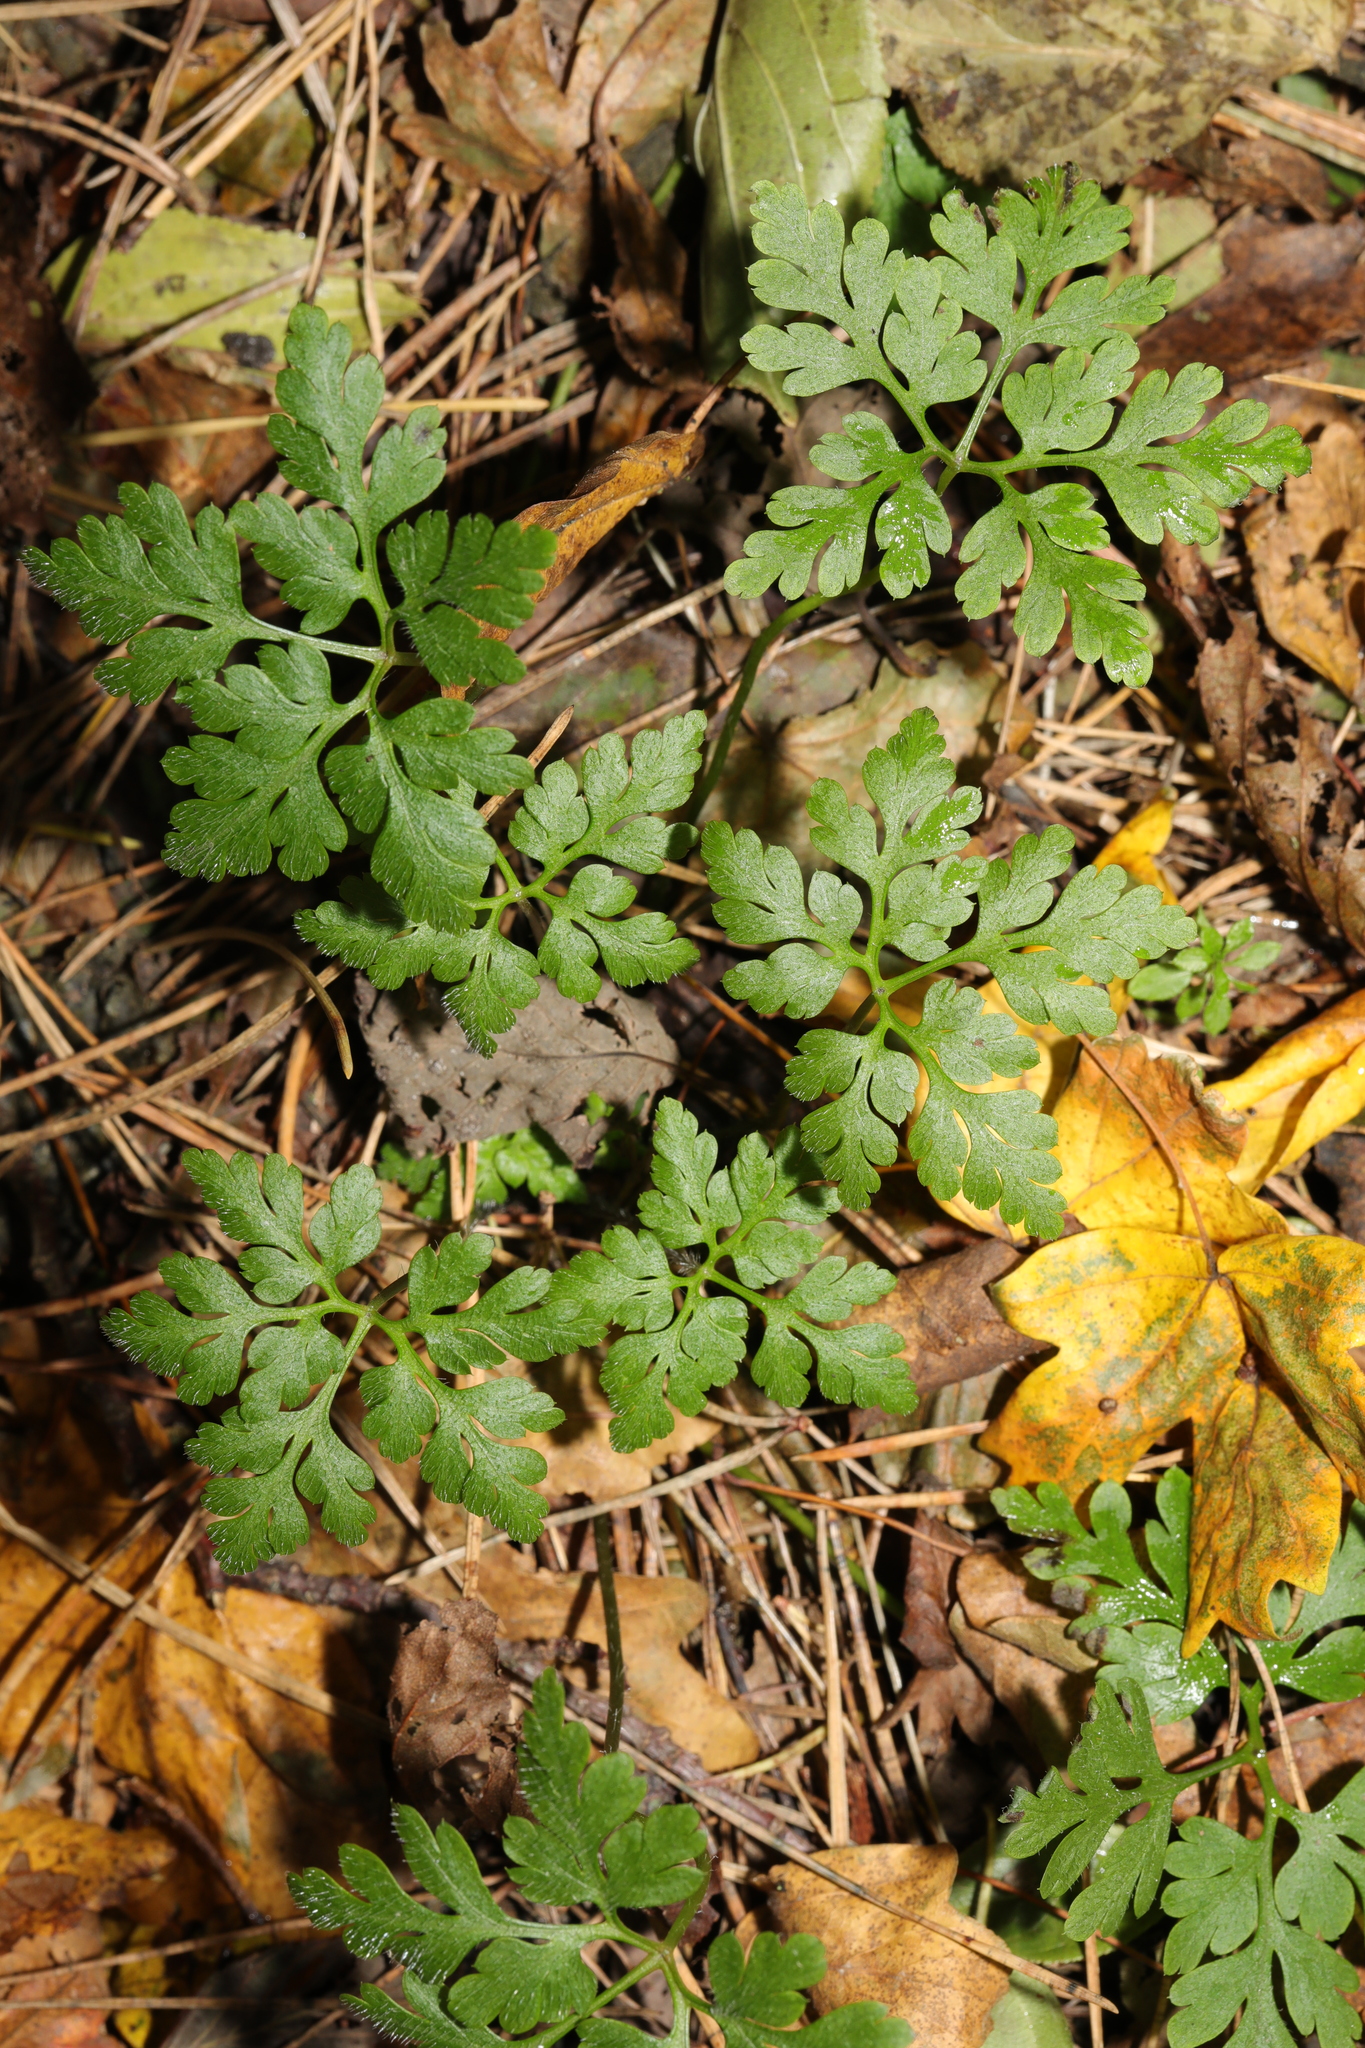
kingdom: Plantae
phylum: Tracheophyta
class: Magnoliopsida
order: Geraniales
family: Geraniaceae
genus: Geranium
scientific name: Geranium robertianum
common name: Herb-robert
